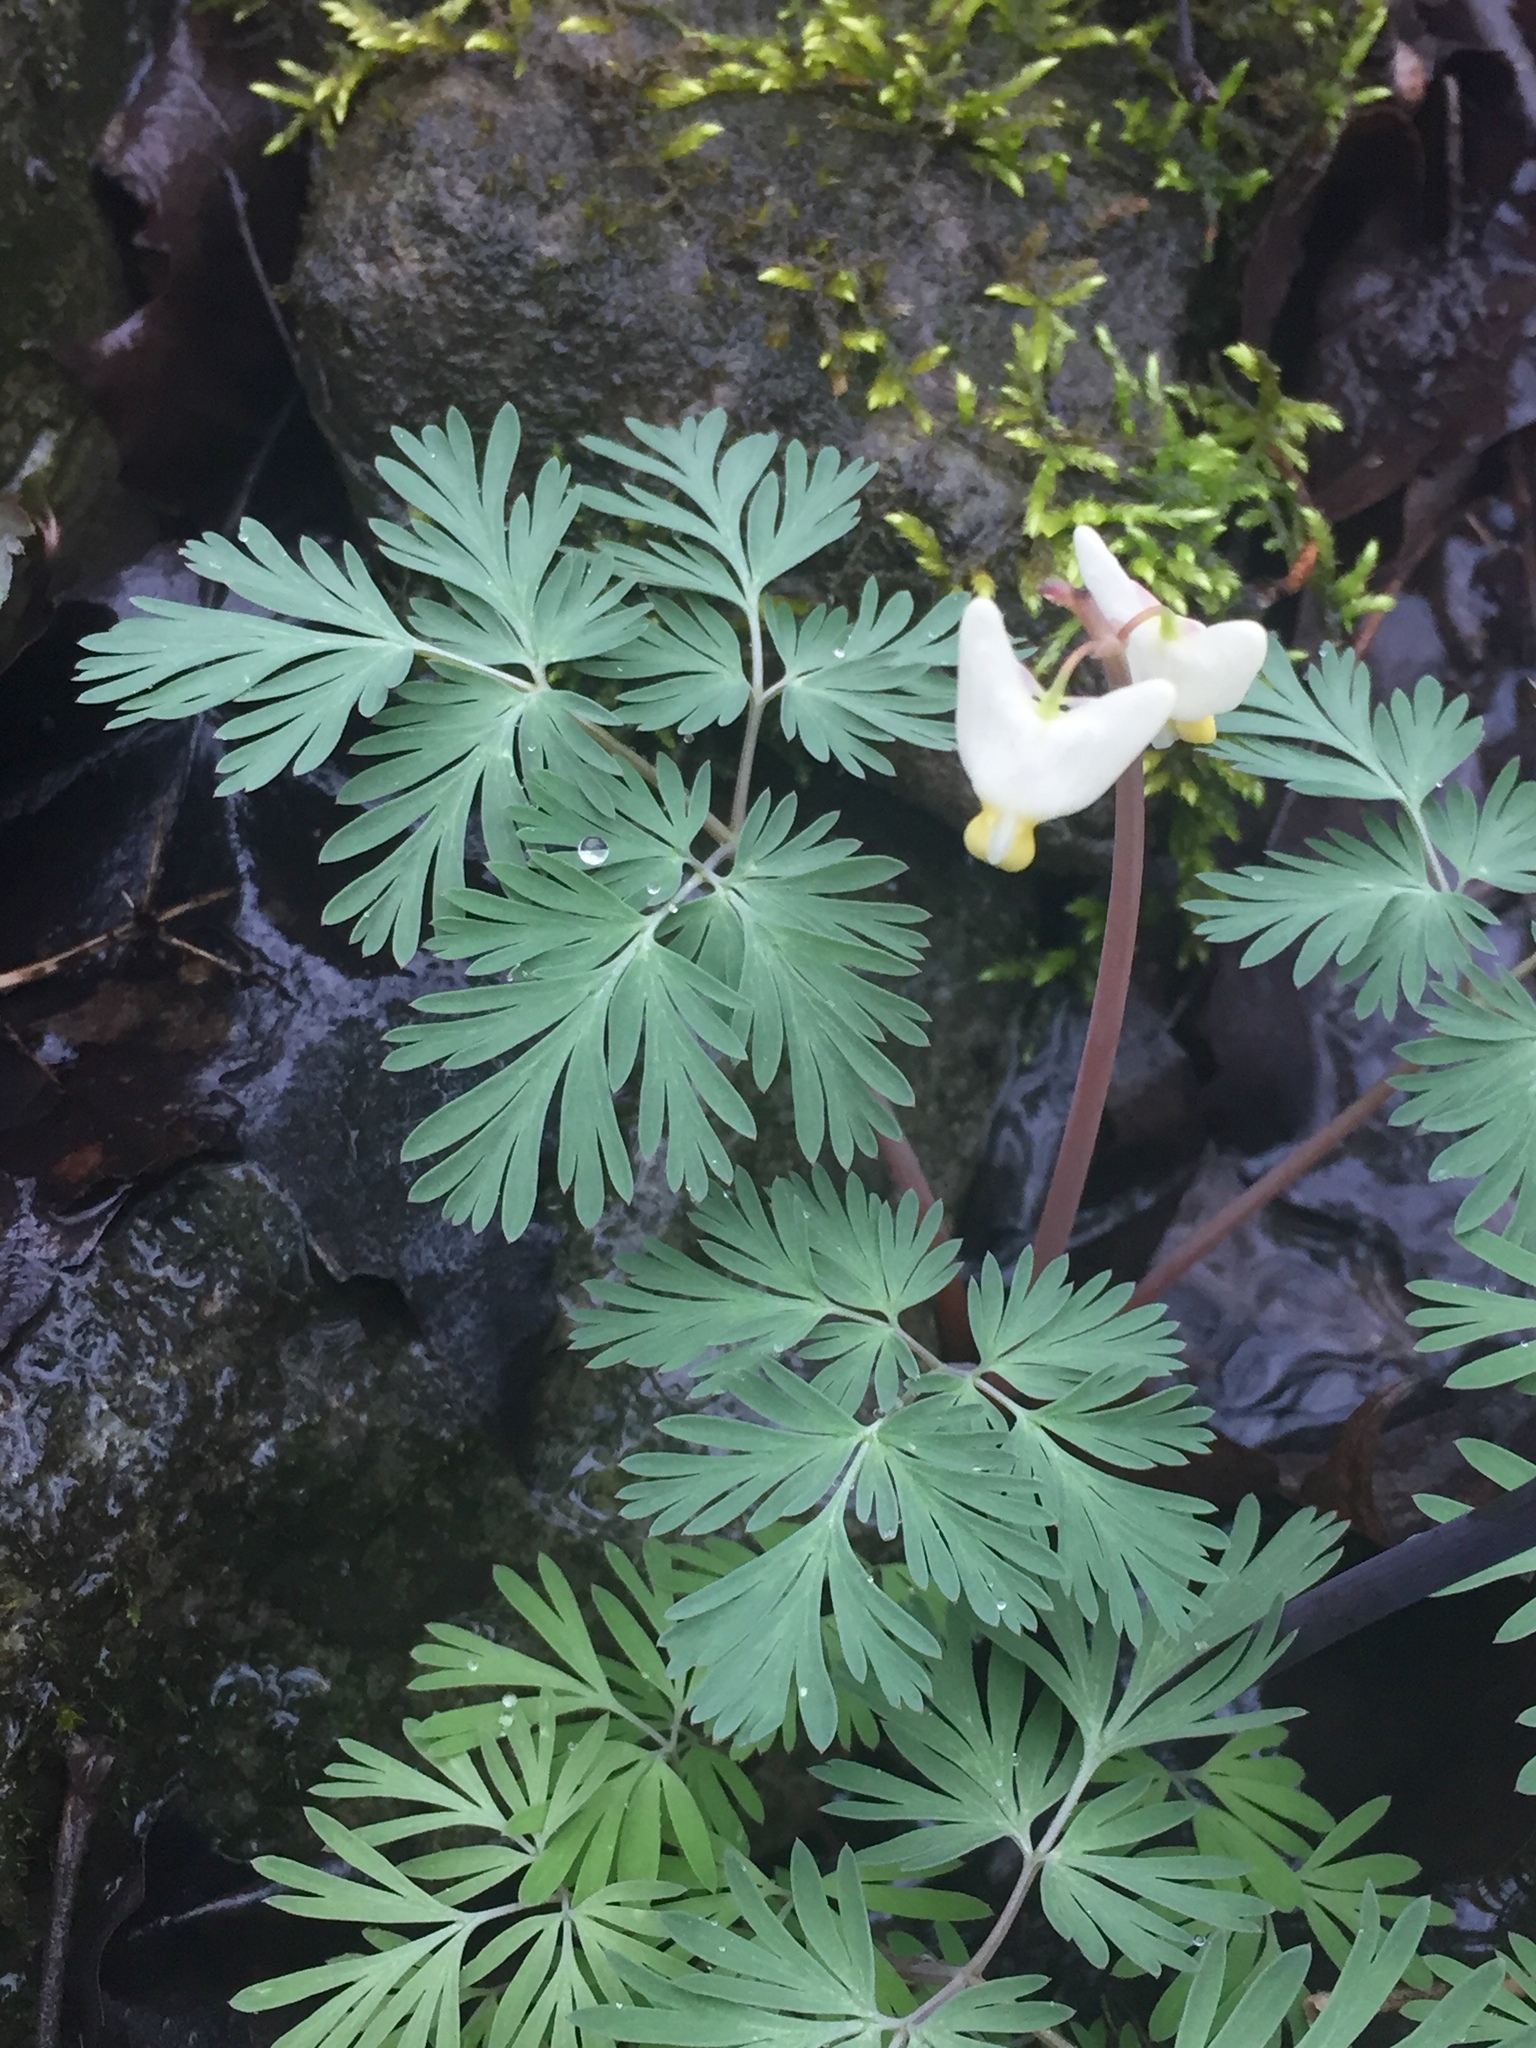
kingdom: Plantae
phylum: Tracheophyta
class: Magnoliopsida
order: Ranunculales
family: Papaveraceae
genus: Dicentra
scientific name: Dicentra cucullaria
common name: Dutchman's breeches
